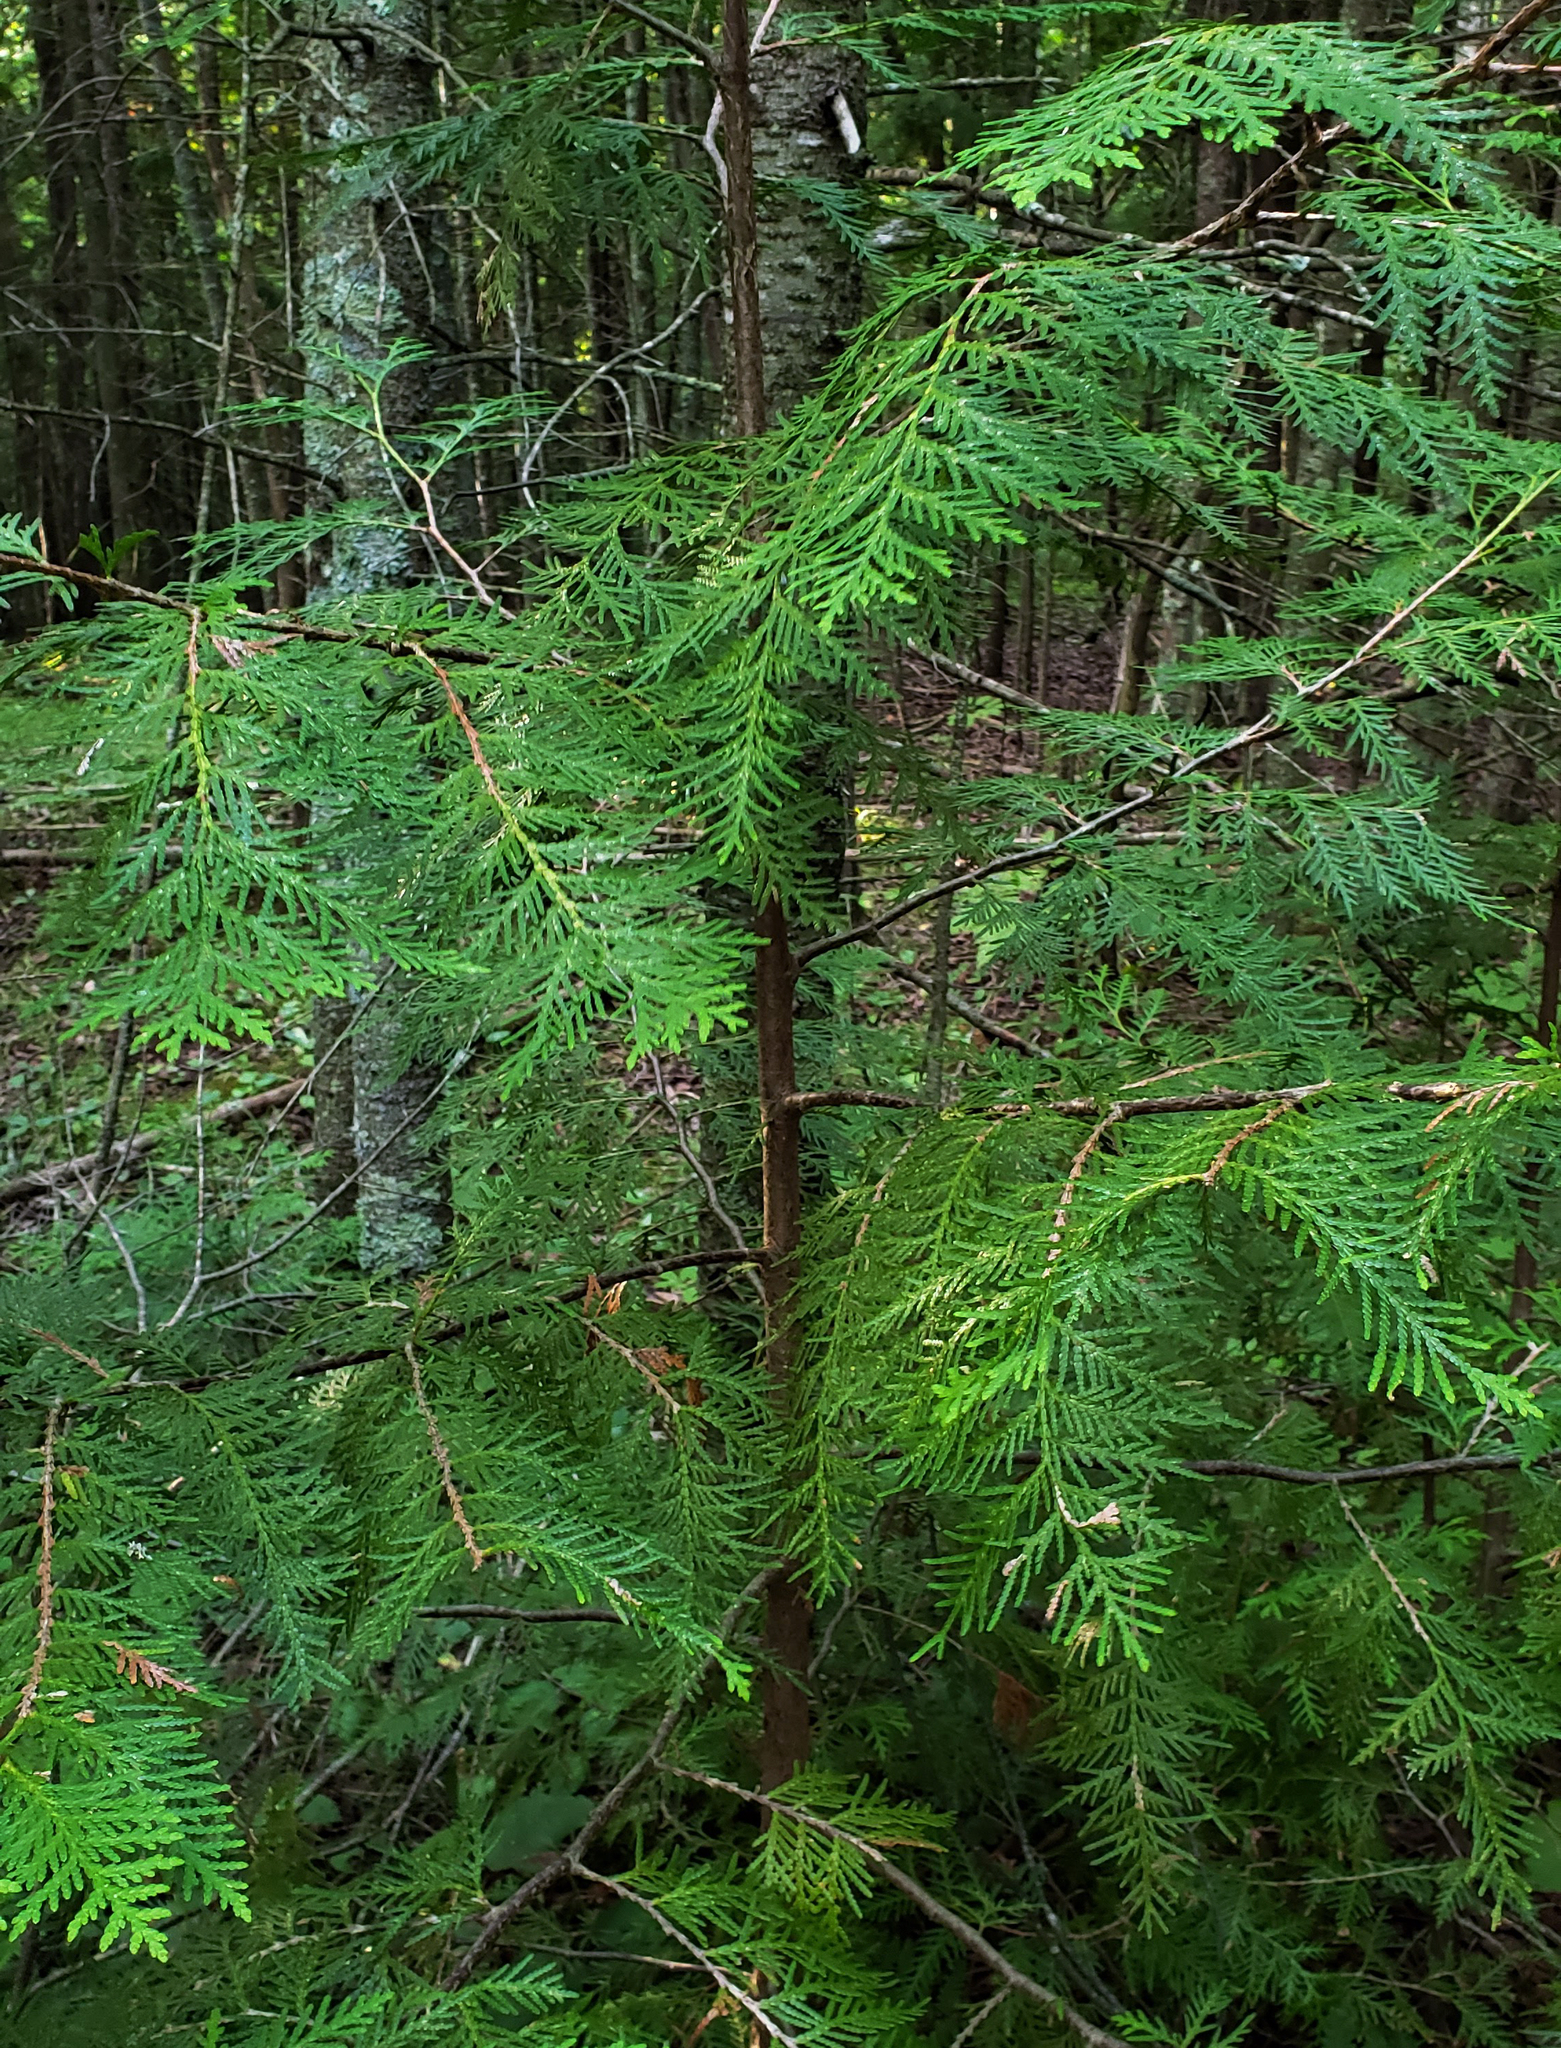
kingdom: Plantae
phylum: Tracheophyta
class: Pinopsida
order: Pinales
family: Cupressaceae
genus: Thuja
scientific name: Thuja occidentalis
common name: Northern white-cedar
